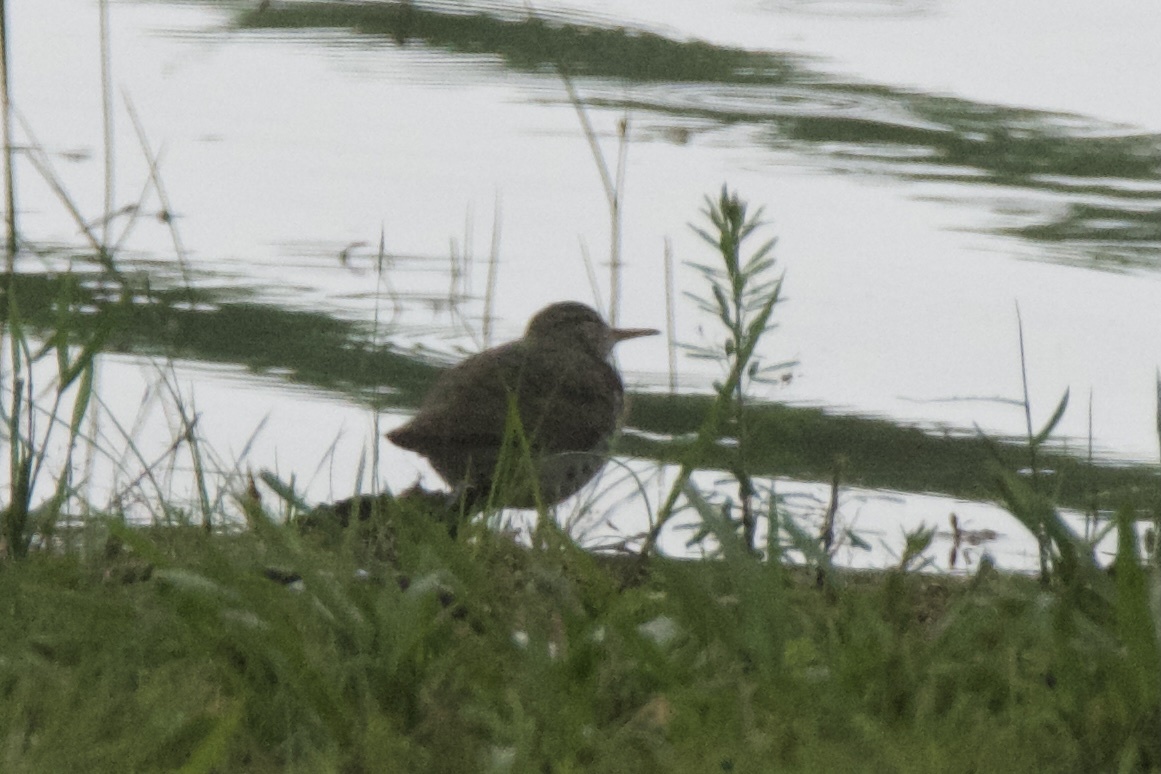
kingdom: Animalia
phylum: Chordata
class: Aves
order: Charadriiformes
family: Scolopacidae
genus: Actitis
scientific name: Actitis macularius
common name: Spotted sandpiper
